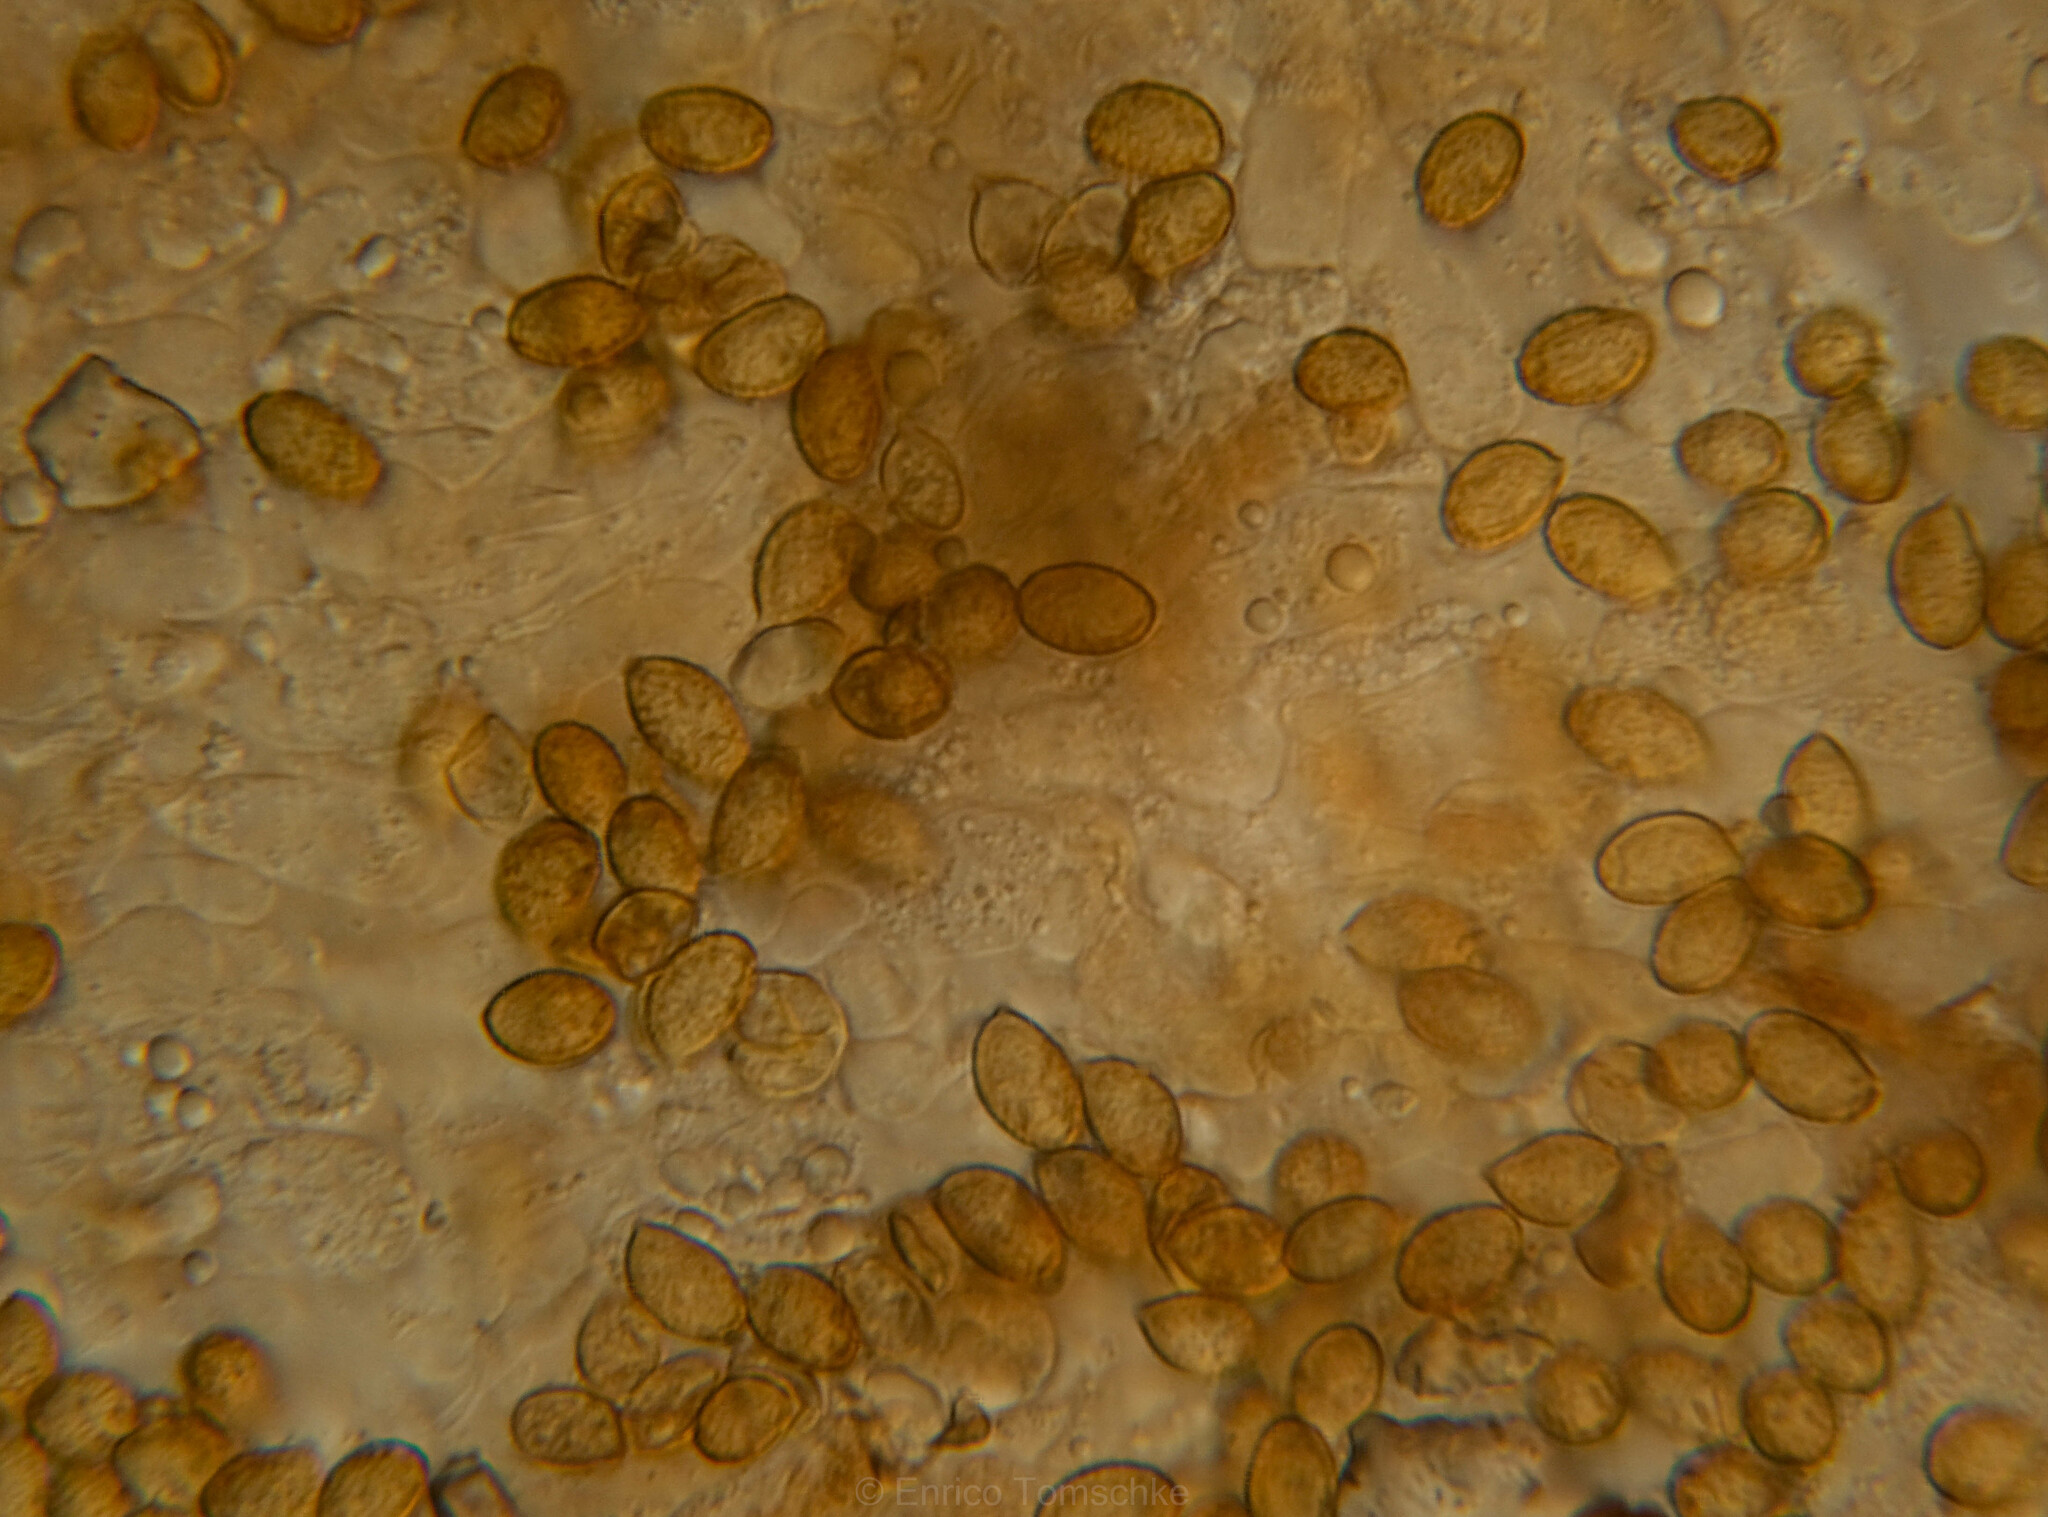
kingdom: Fungi
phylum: Basidiomycota
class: Agaricomycetes
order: Agaricales
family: Cortinariaceae
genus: Cortinarius
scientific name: Cortinarius subbalaustinus
